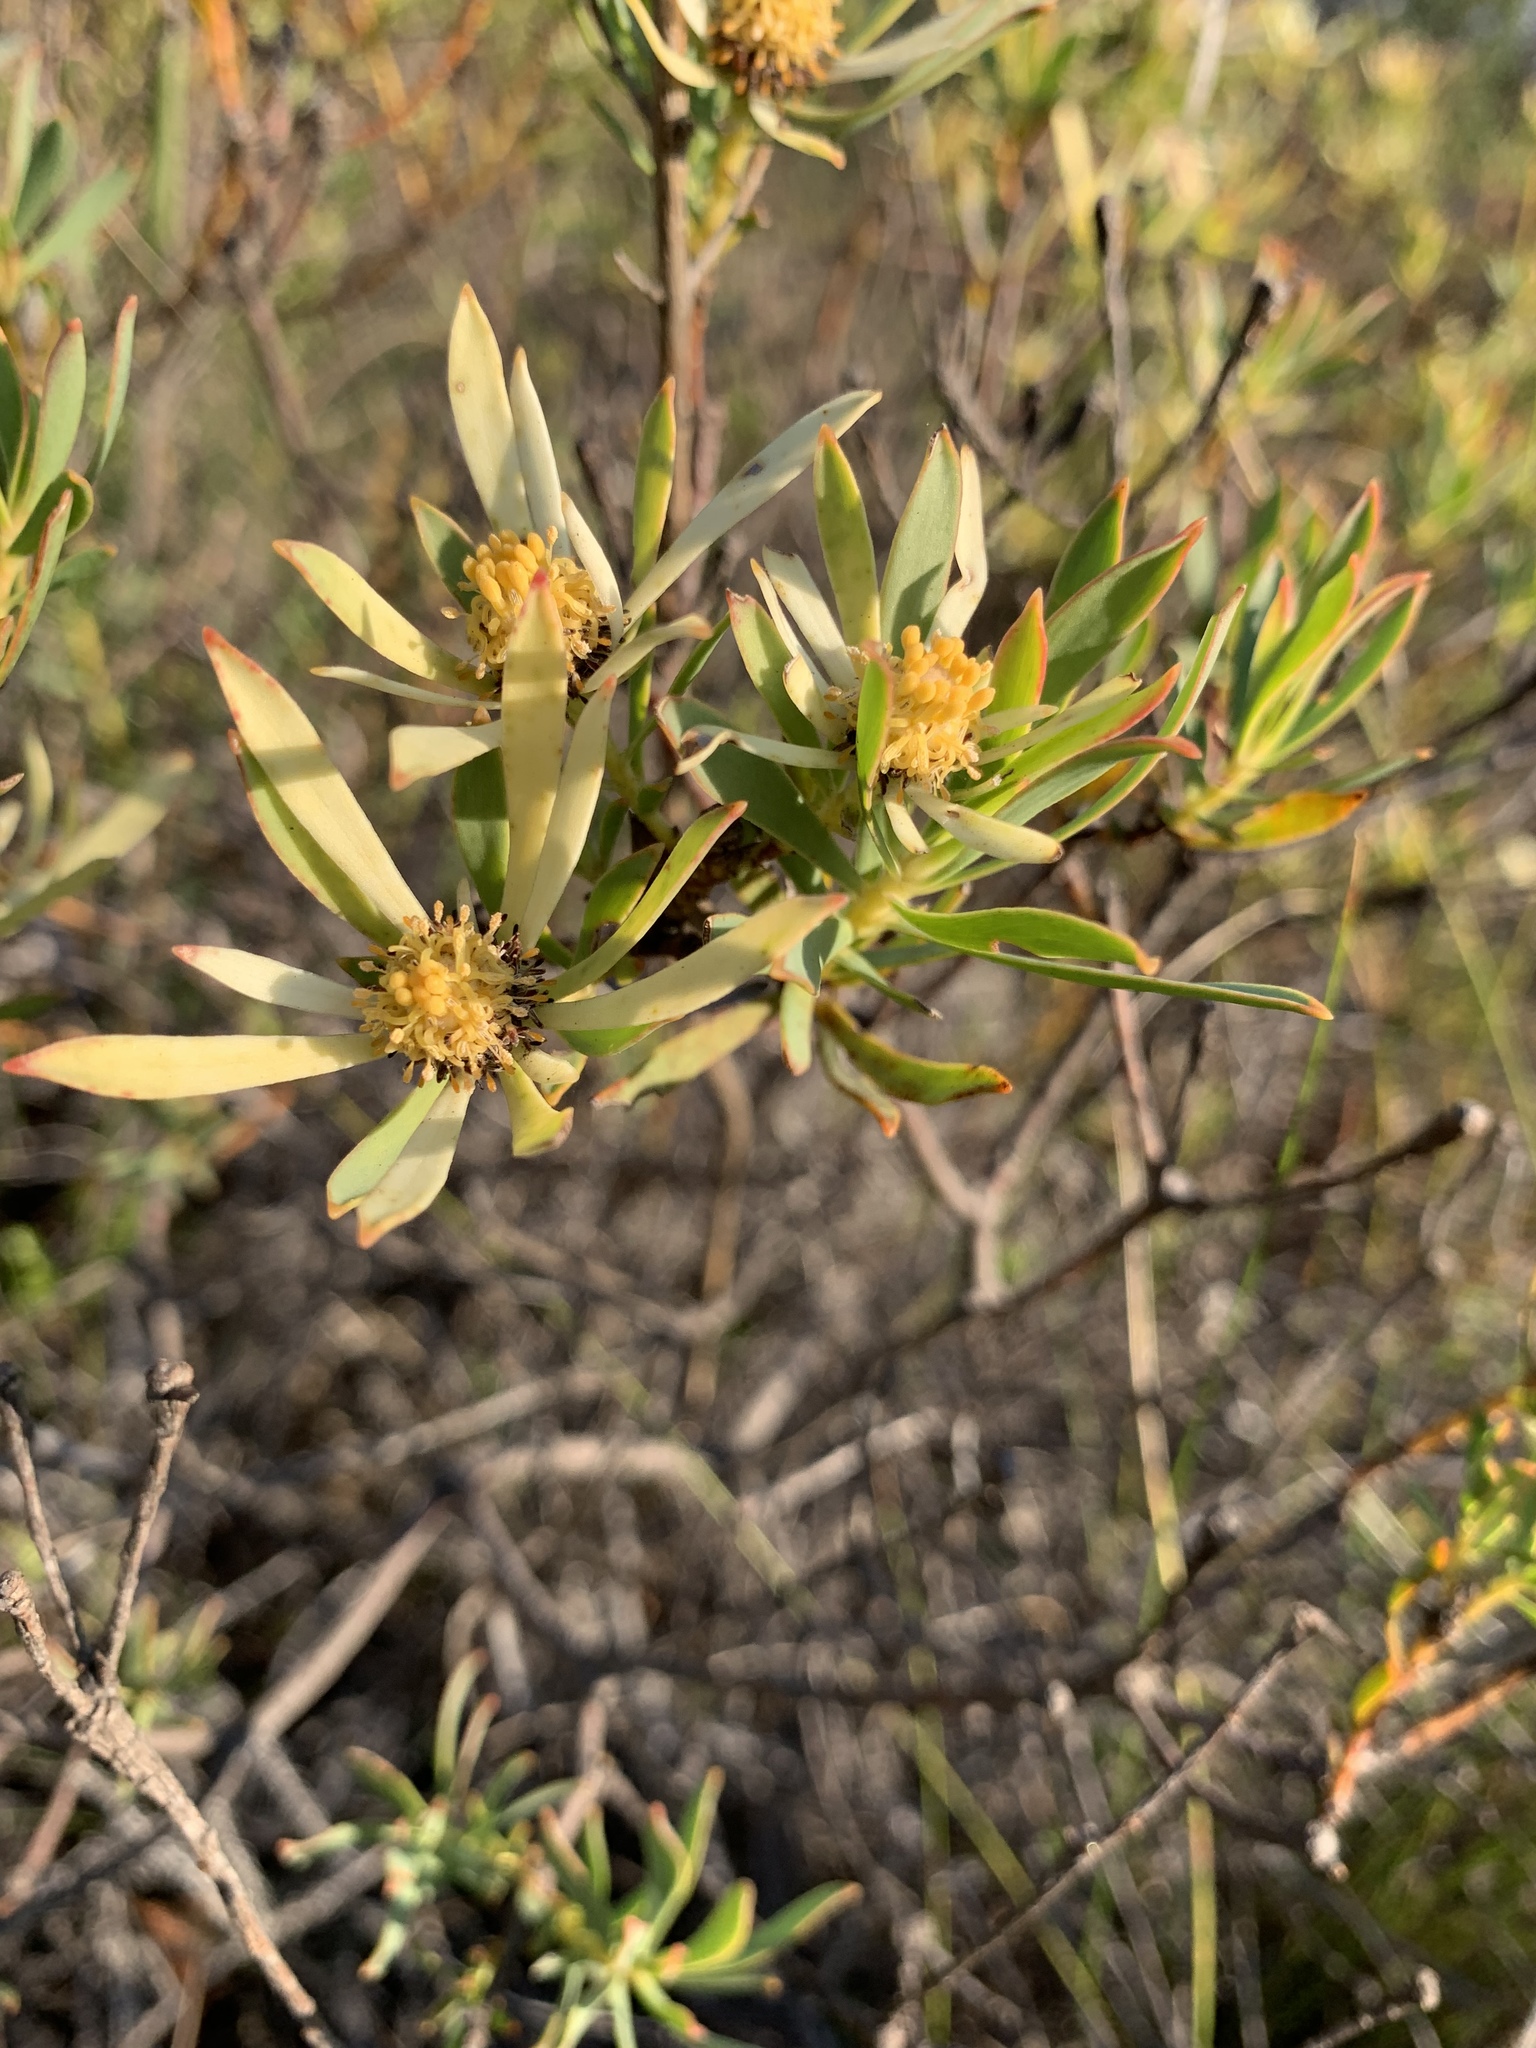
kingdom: Plantae
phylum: Tracheophyta
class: Magnoliopsida
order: Proteales
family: Proteaceae
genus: Leucadendron
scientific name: Leucadendron salignum
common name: Common sunshine conebush
